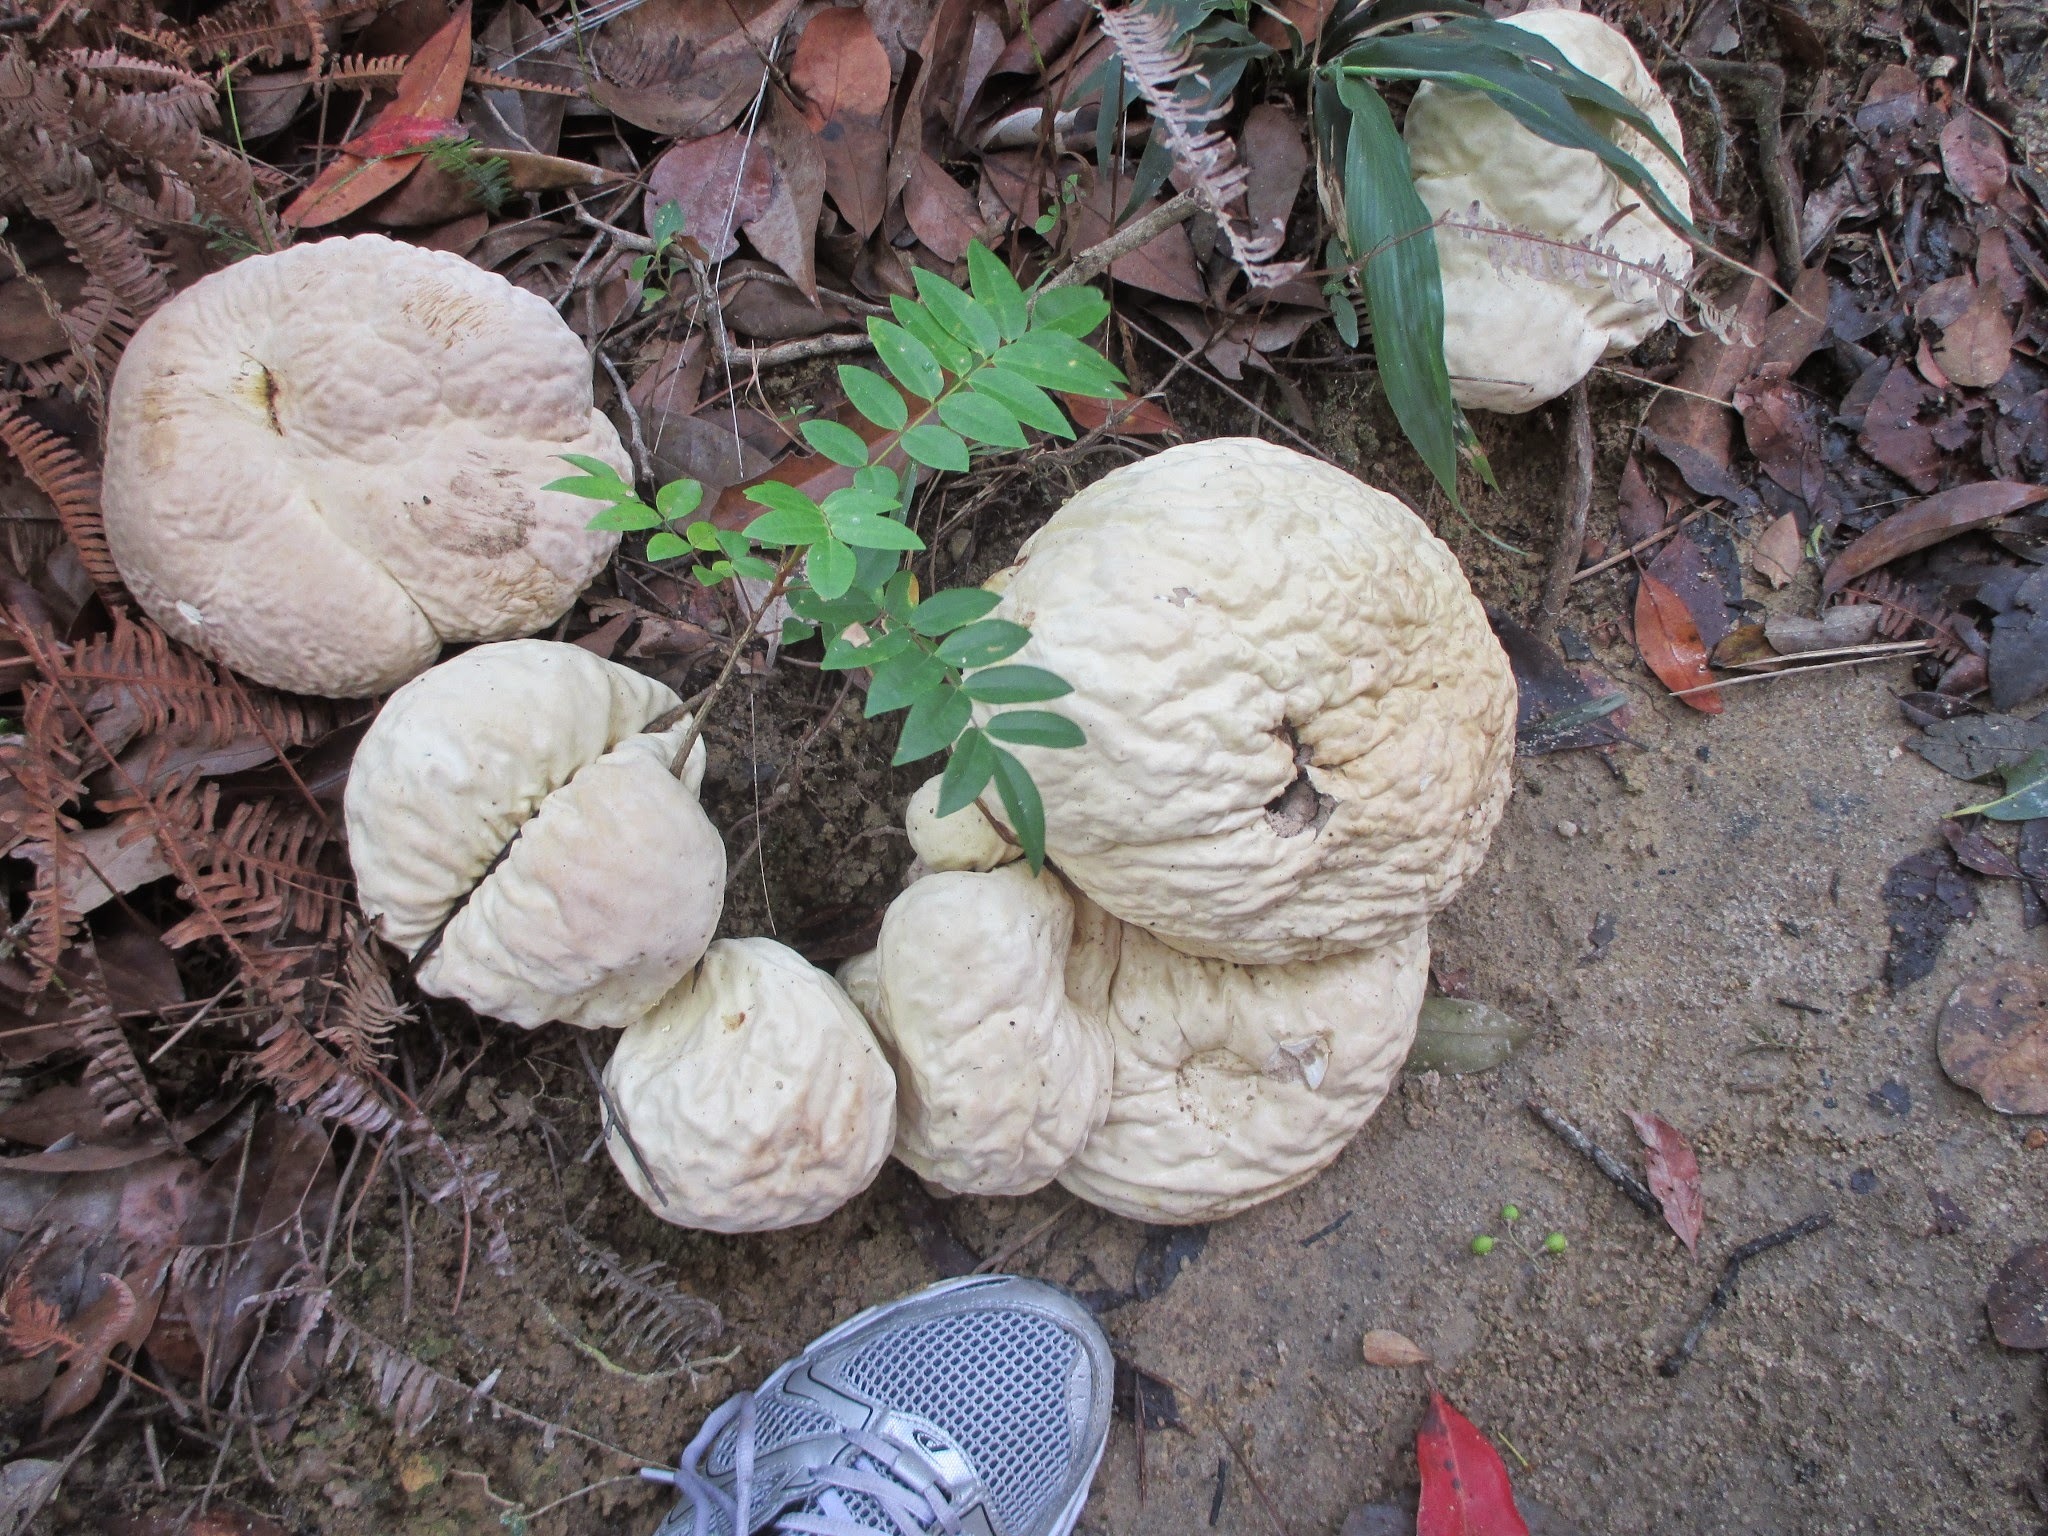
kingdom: Fungi
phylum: Basidiomycota
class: Agaricomycetes
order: Agaricales
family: Lycoperdaceae
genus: Calvatia
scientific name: Calvatia craniiformis
